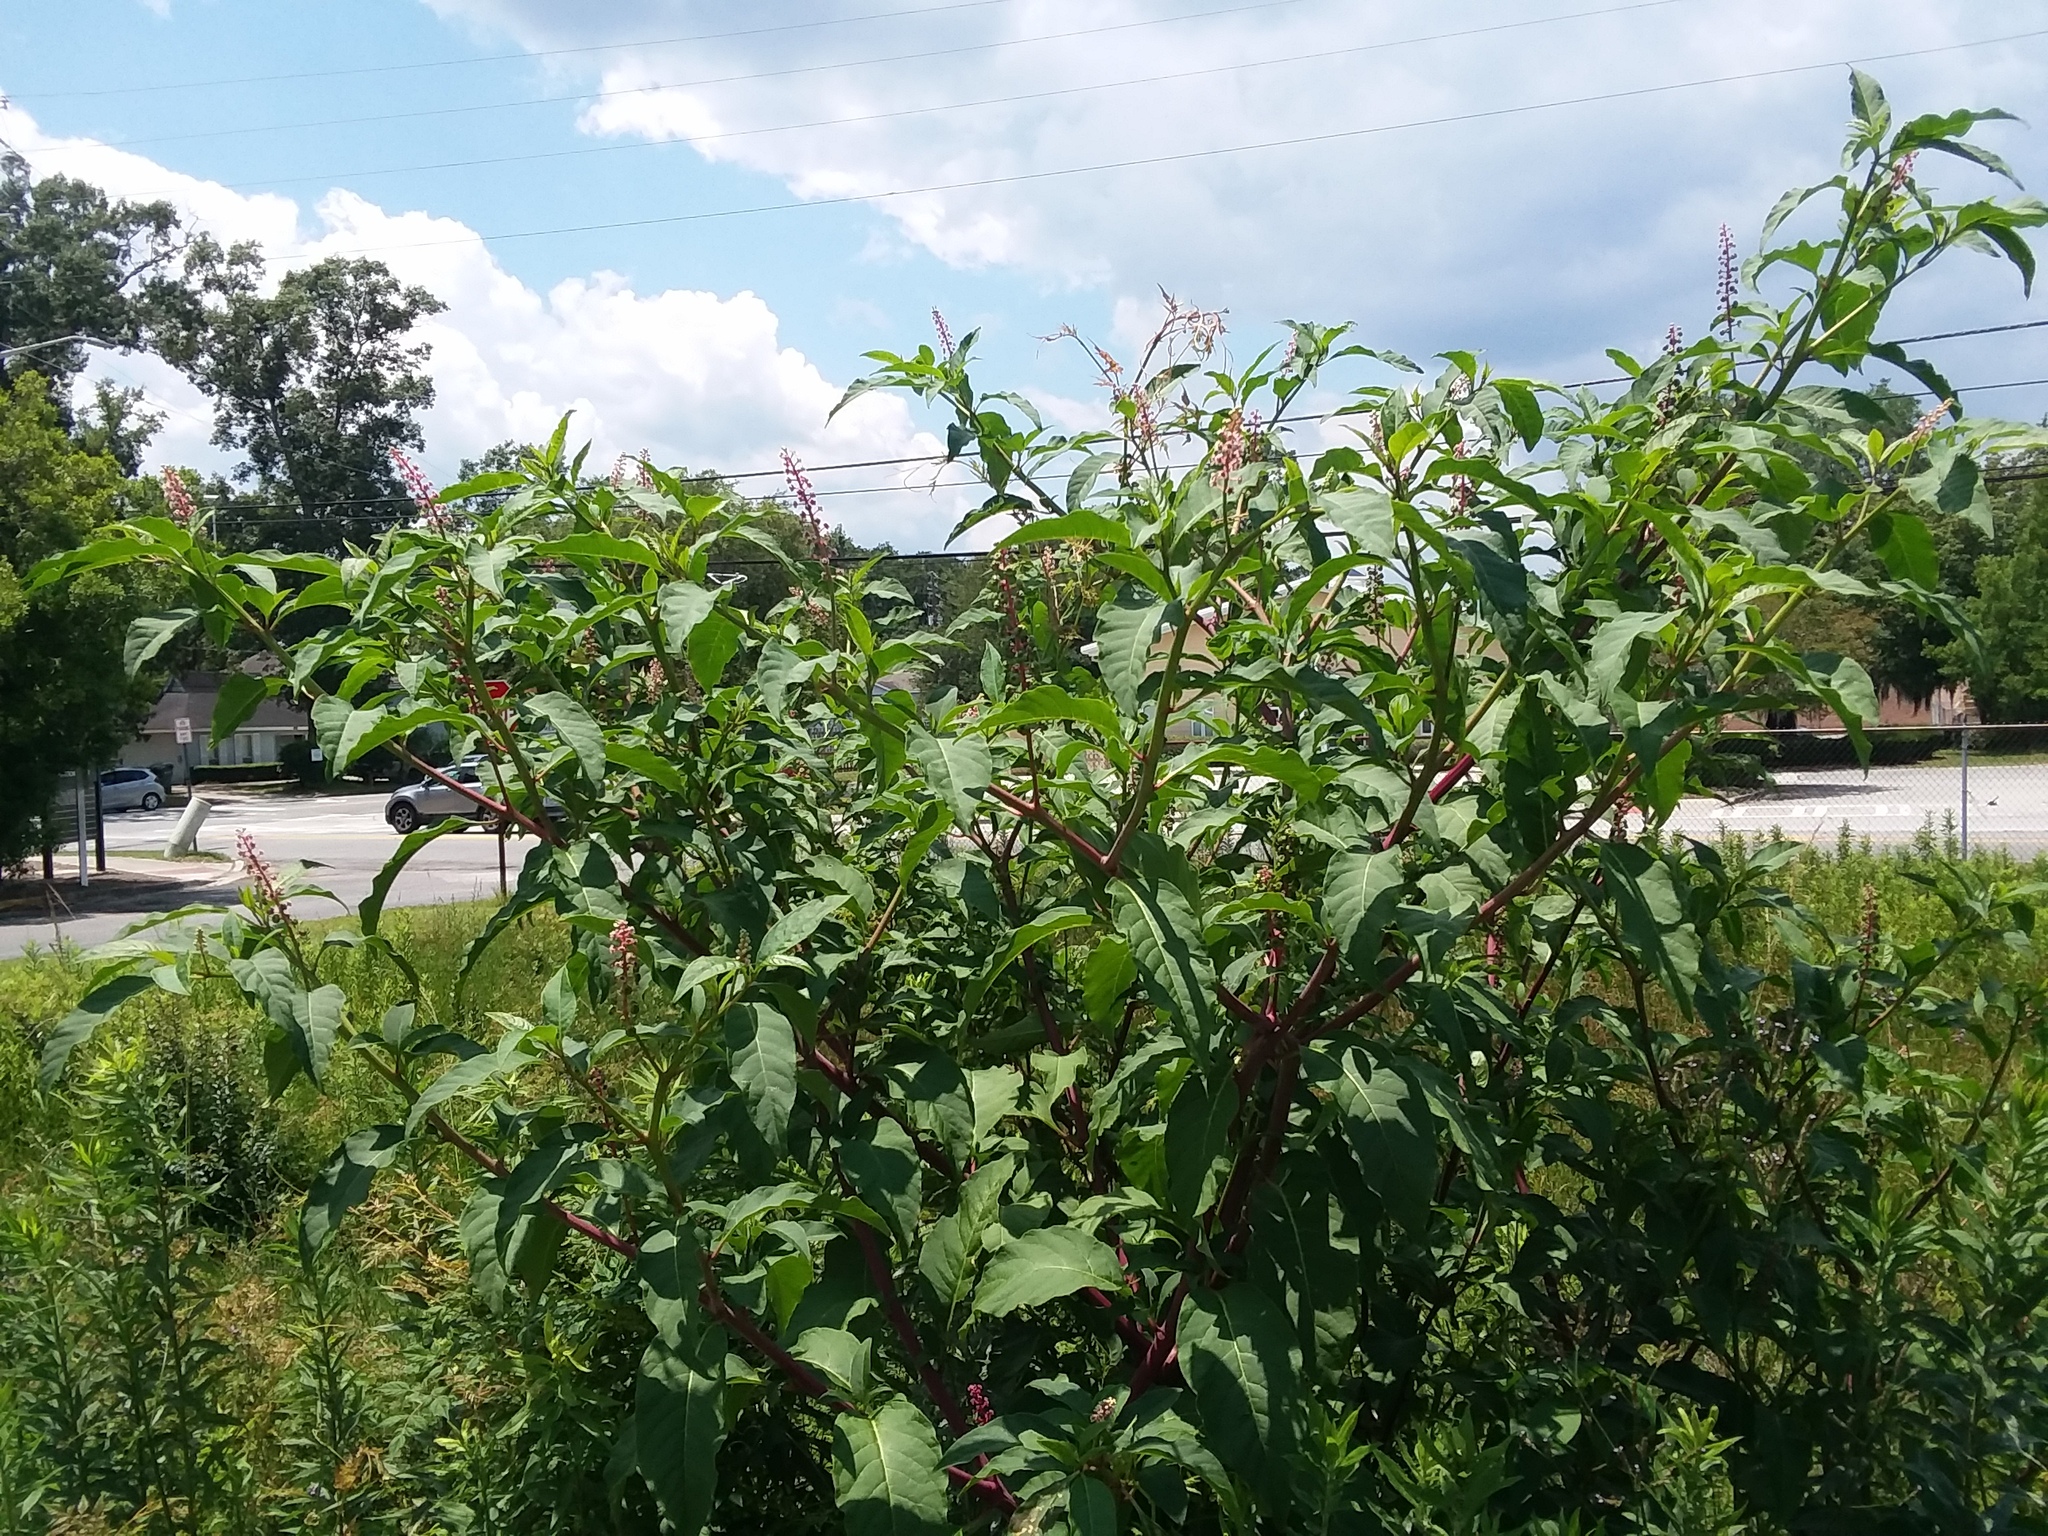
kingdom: Plantae
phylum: Tracheophyta
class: Magnoliopsida
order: Caryophyllales
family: Phytolaccaceae
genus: Phytolacca
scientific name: Phytolacca americana
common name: American pokeweed
